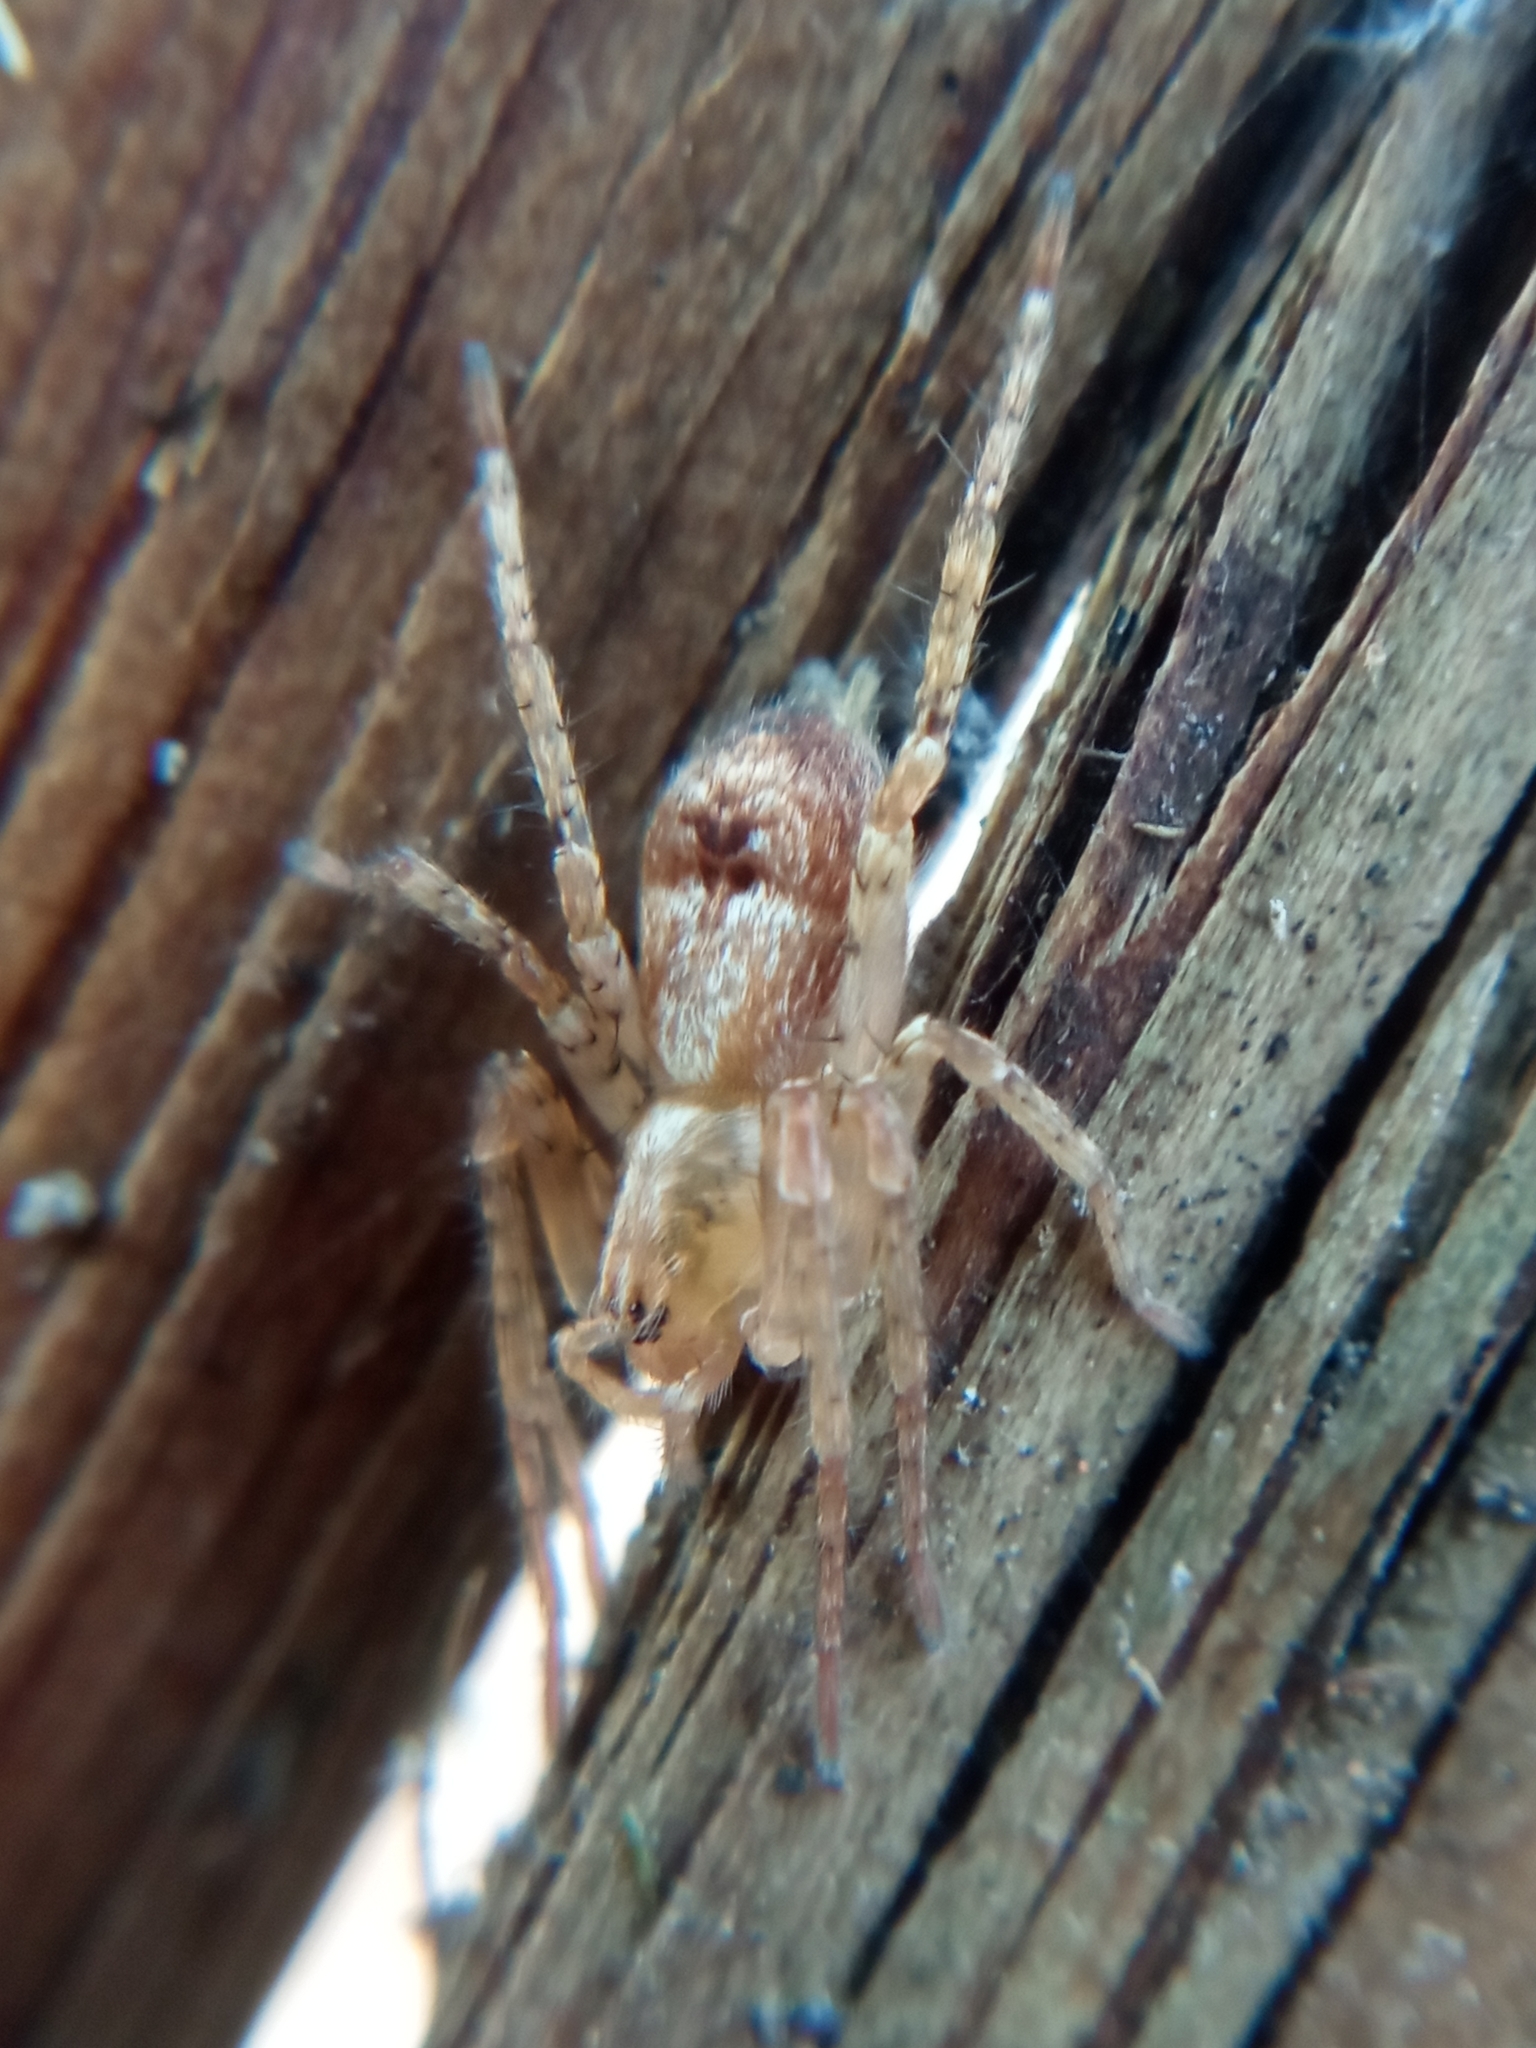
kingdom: Animalia
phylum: Arthropoda
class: Arachnida
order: Araneae
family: Anyphaenidae
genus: Anyphaena
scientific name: Anyphaena accentuata
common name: Buzzing spider
